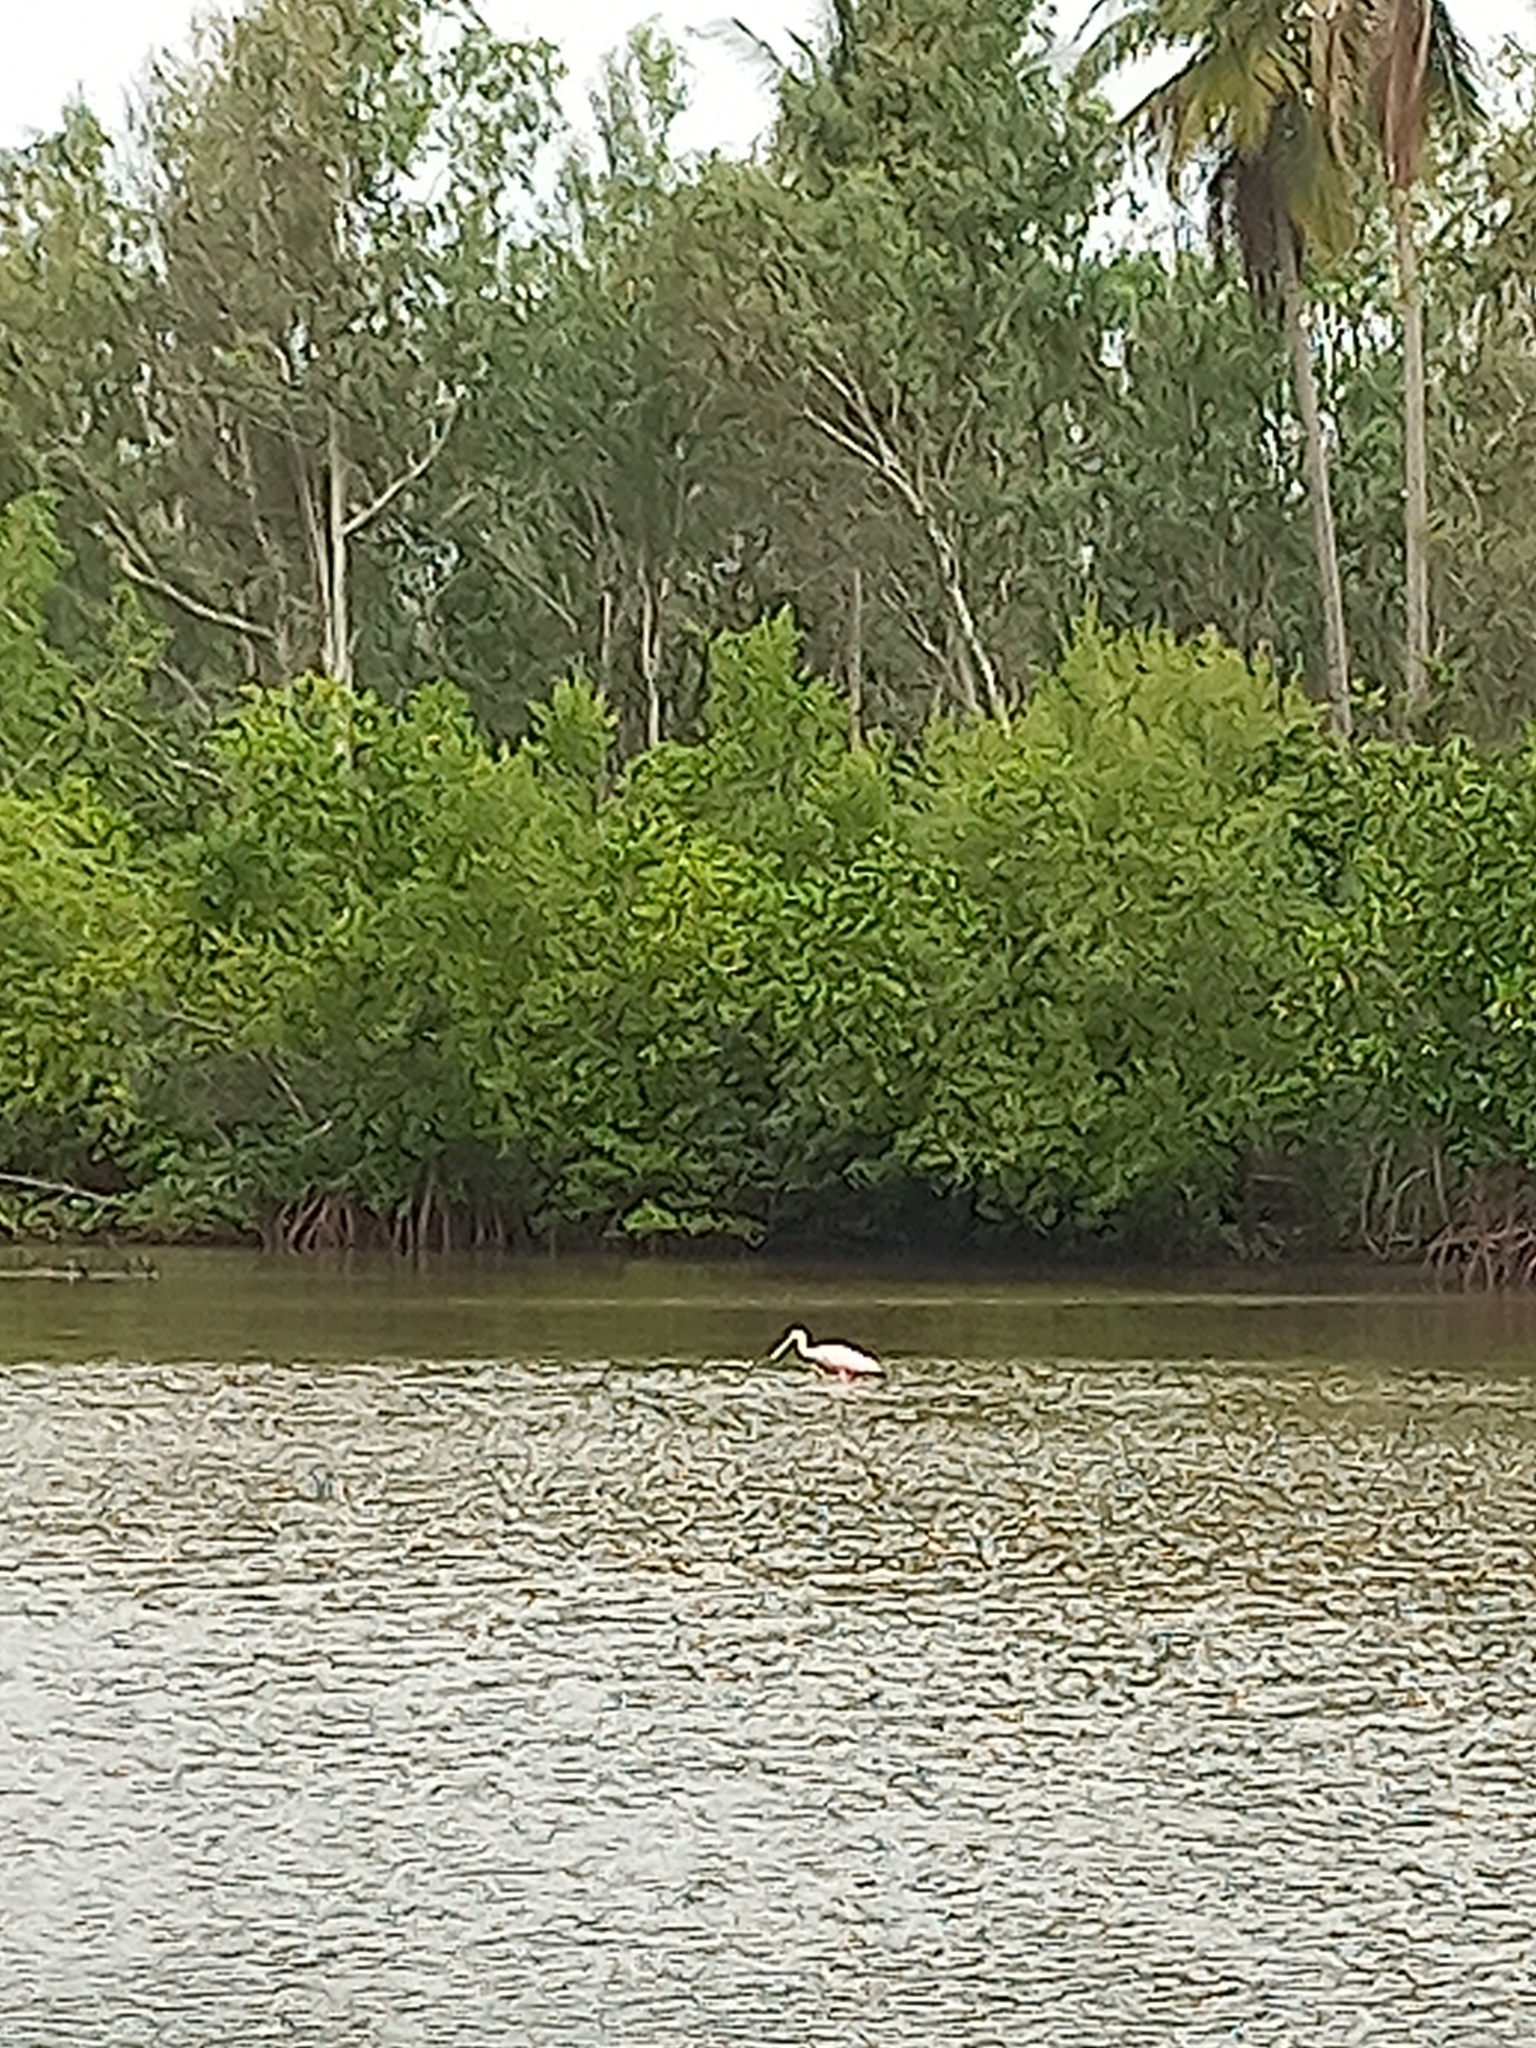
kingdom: Animalia
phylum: Chordata
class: Aves
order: Pelecaniformes
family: Threskiornithidae
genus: Platalea
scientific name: Platalea ajaja
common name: Roseate spoonbill
